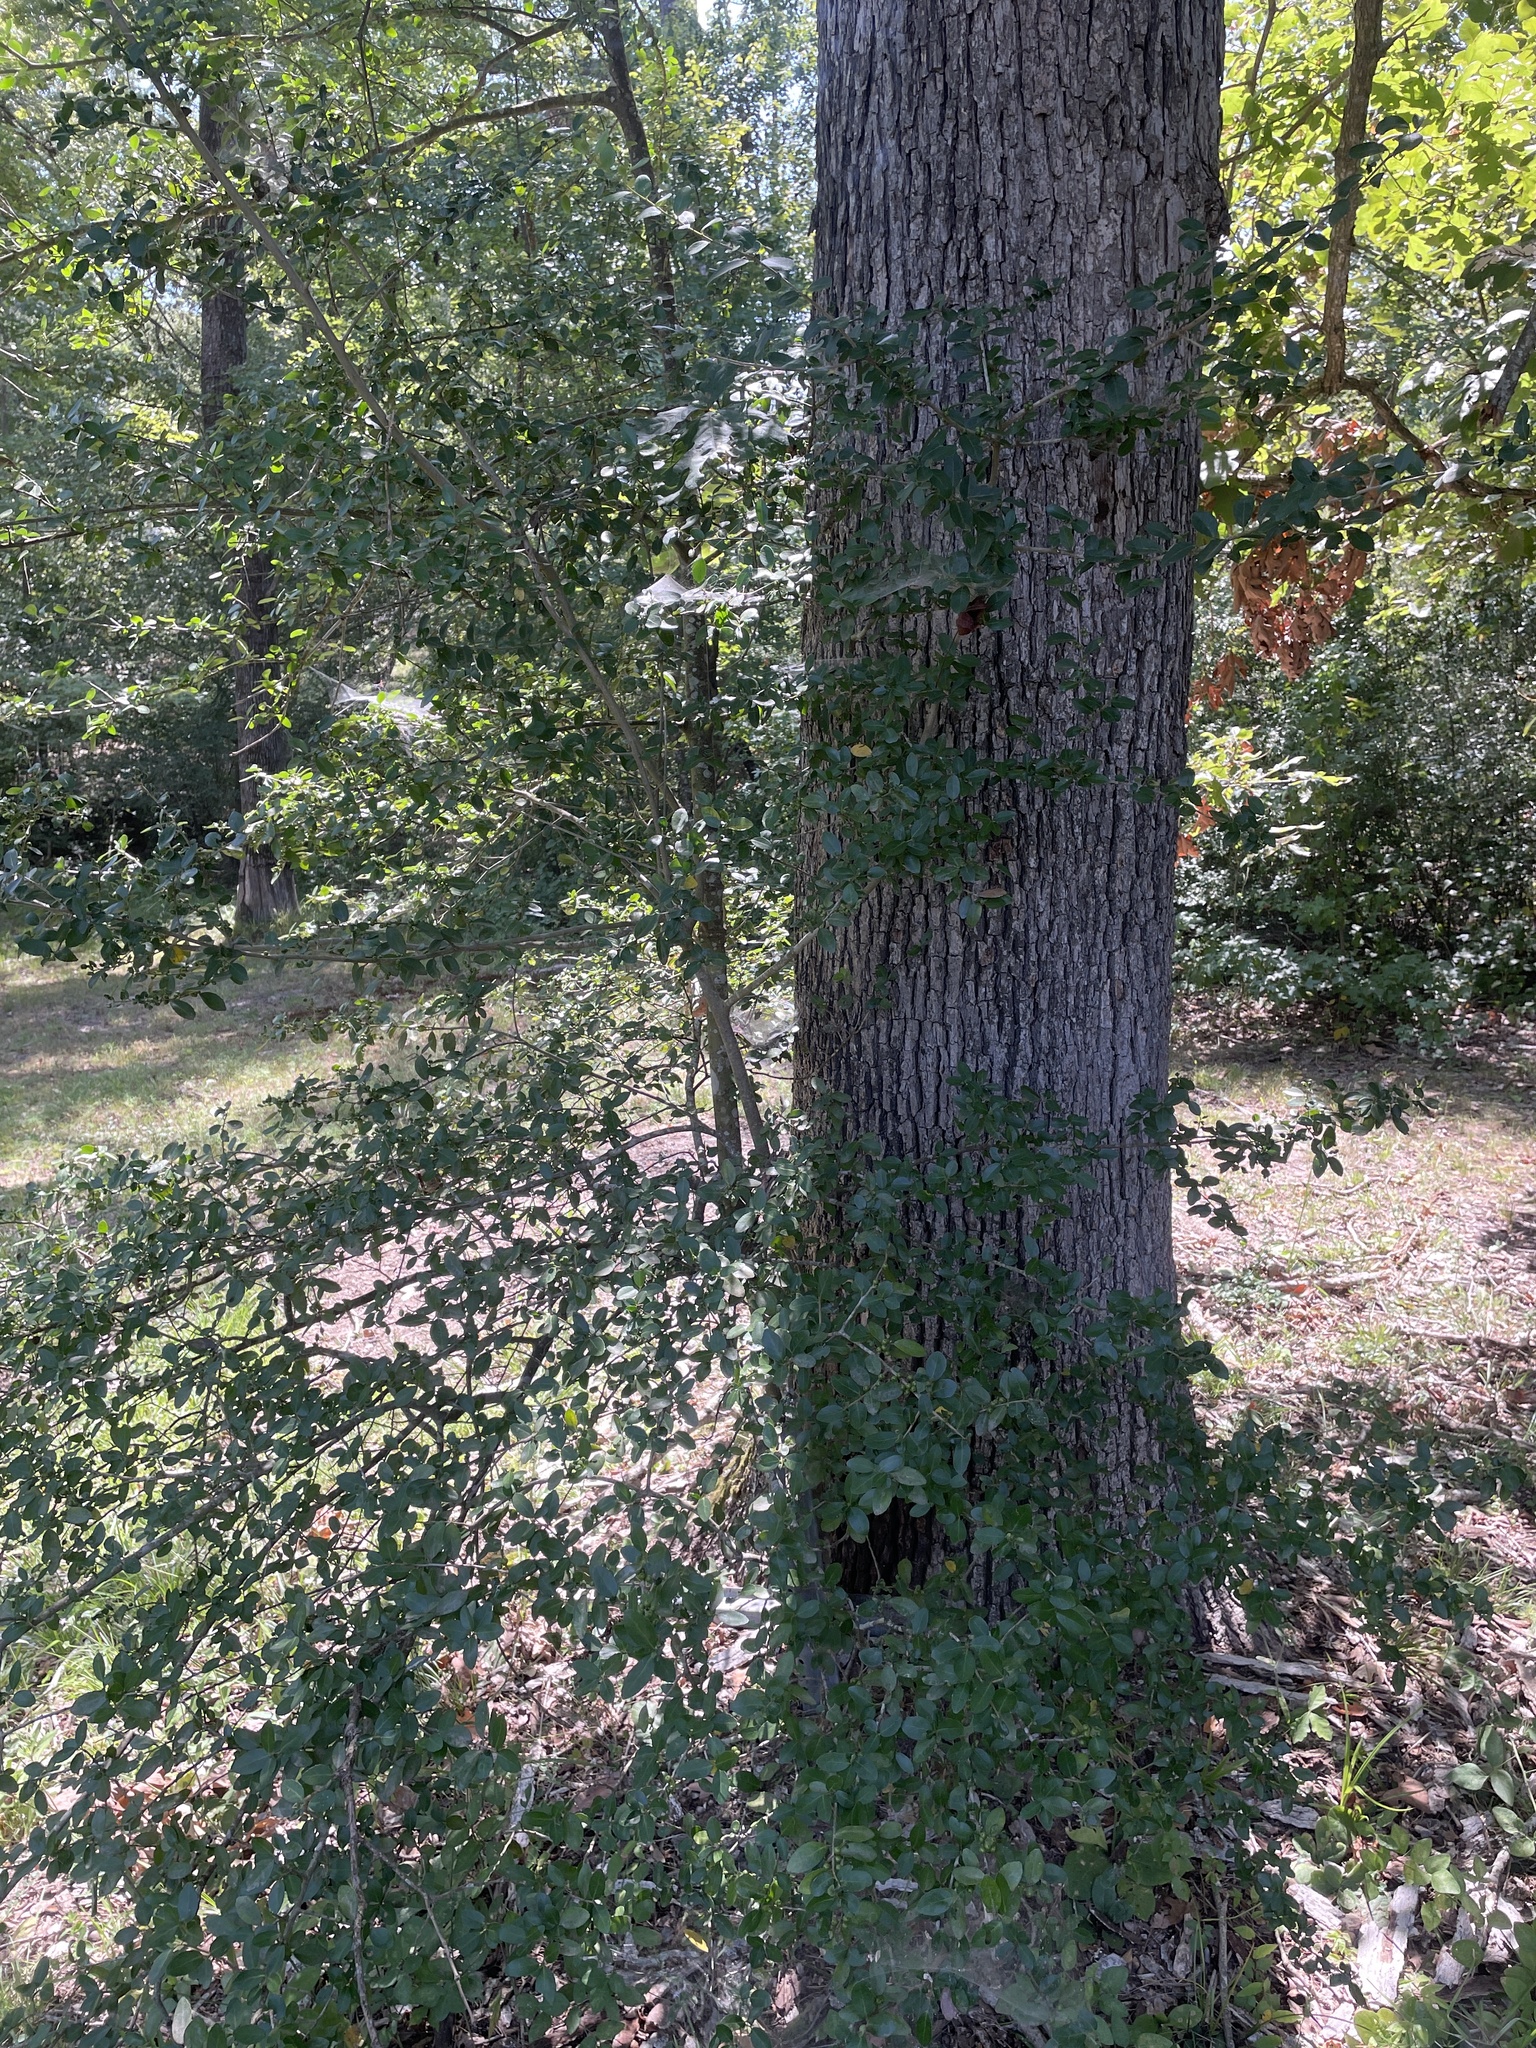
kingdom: Plantae
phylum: Tracheophyta
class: Magnoliopsida
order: Aquifoliales
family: Aquifoliaceae
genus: Ilex
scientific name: Ilex vomitoria
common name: Yaupon holly
